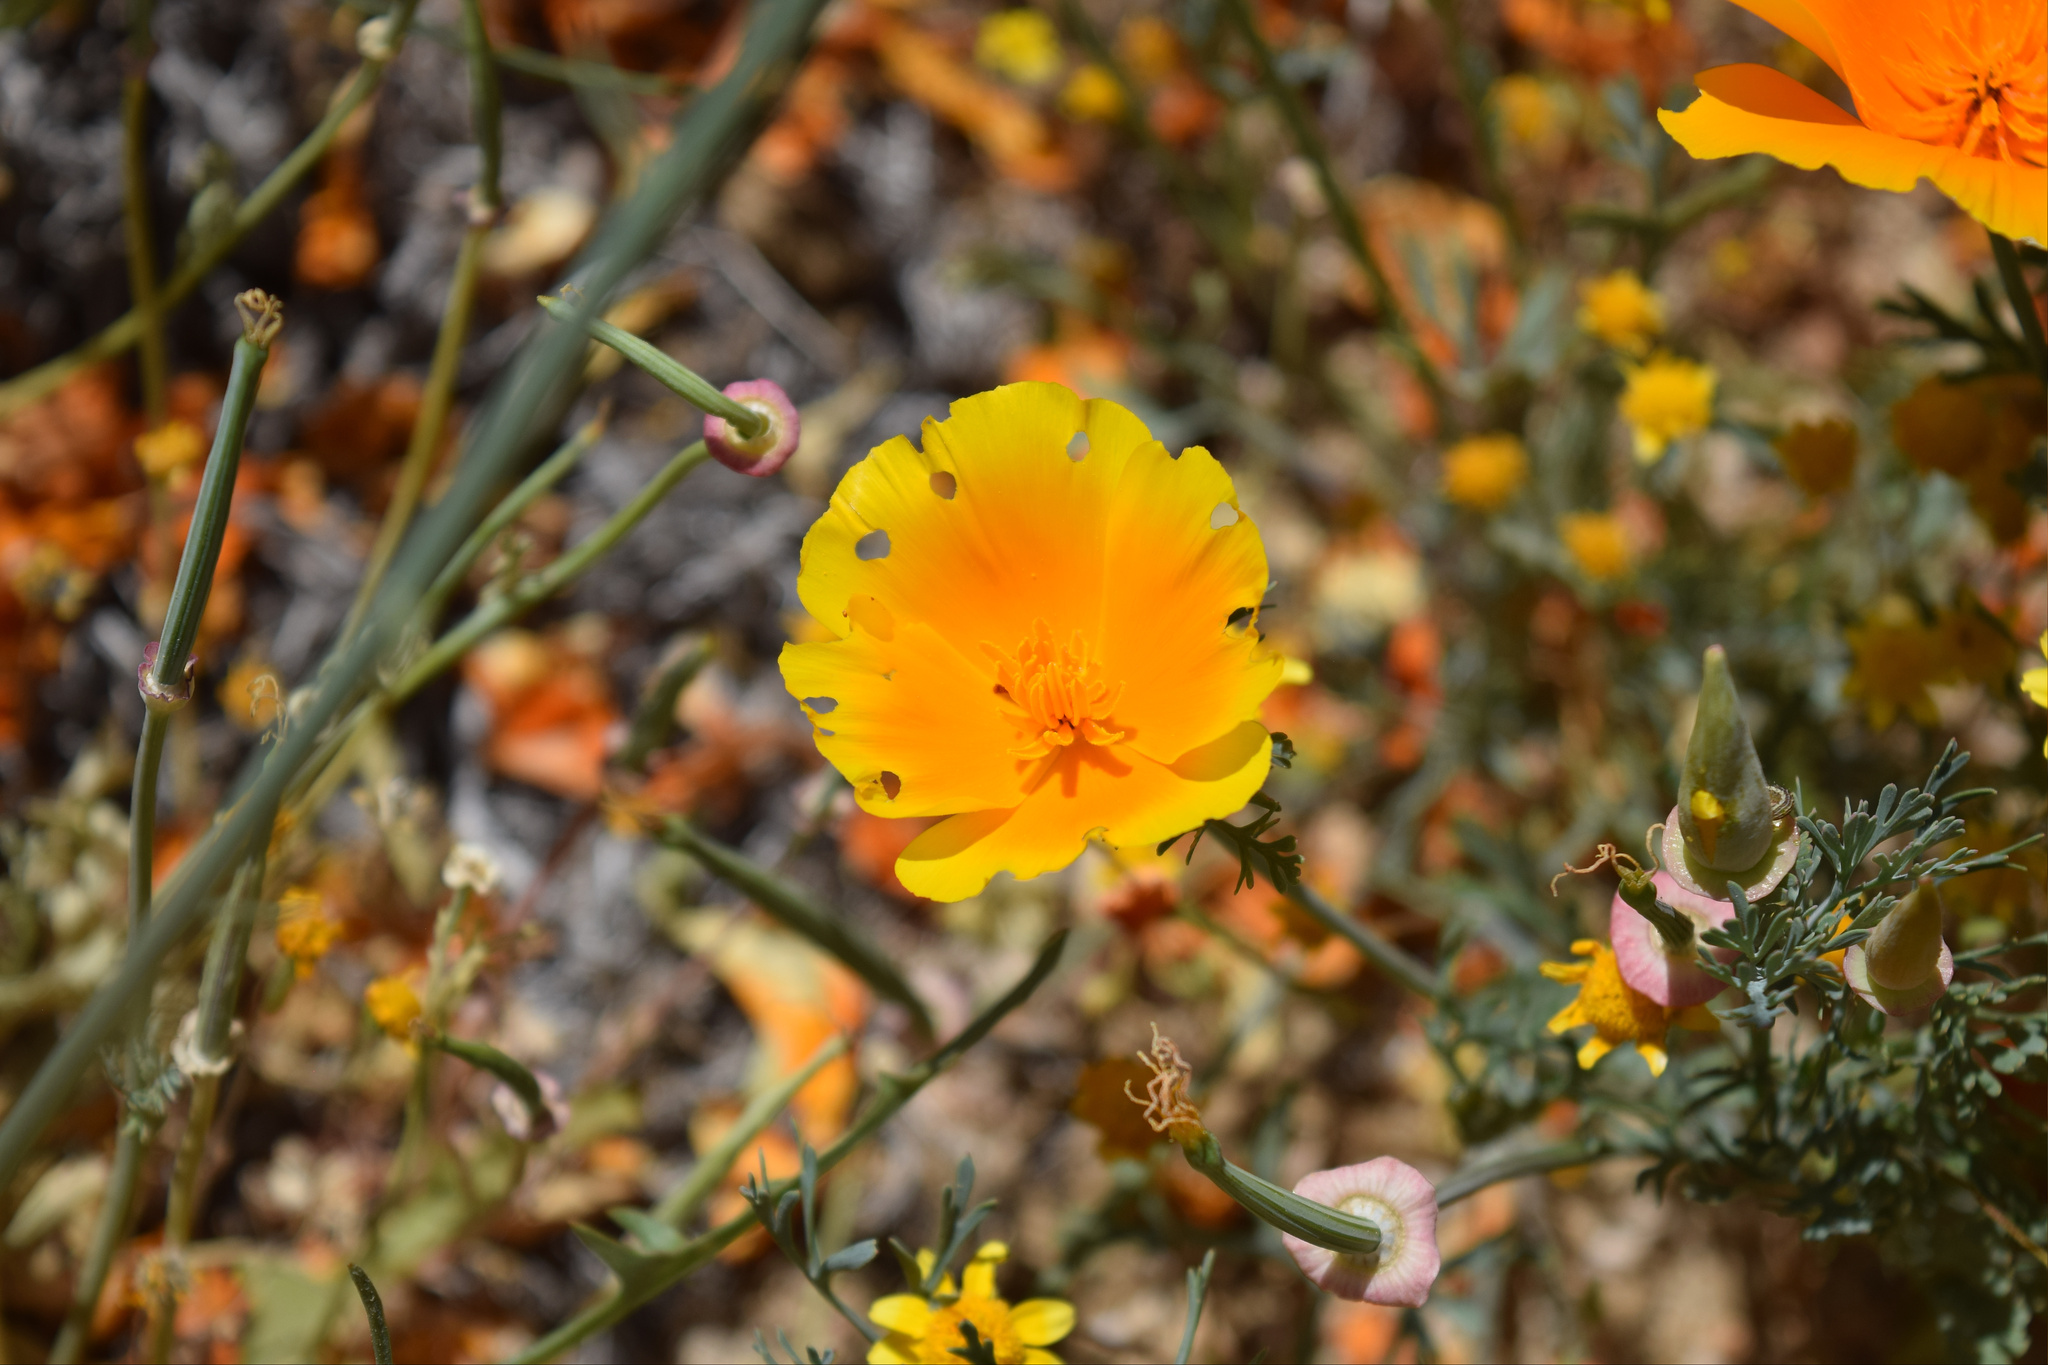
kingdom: Plantae
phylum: Tracheophyta
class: Magnoliopsida
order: Ranunculales
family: Papaveraceae
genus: Eschscholzia
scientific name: Eschscholzia californica
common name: California poppy
